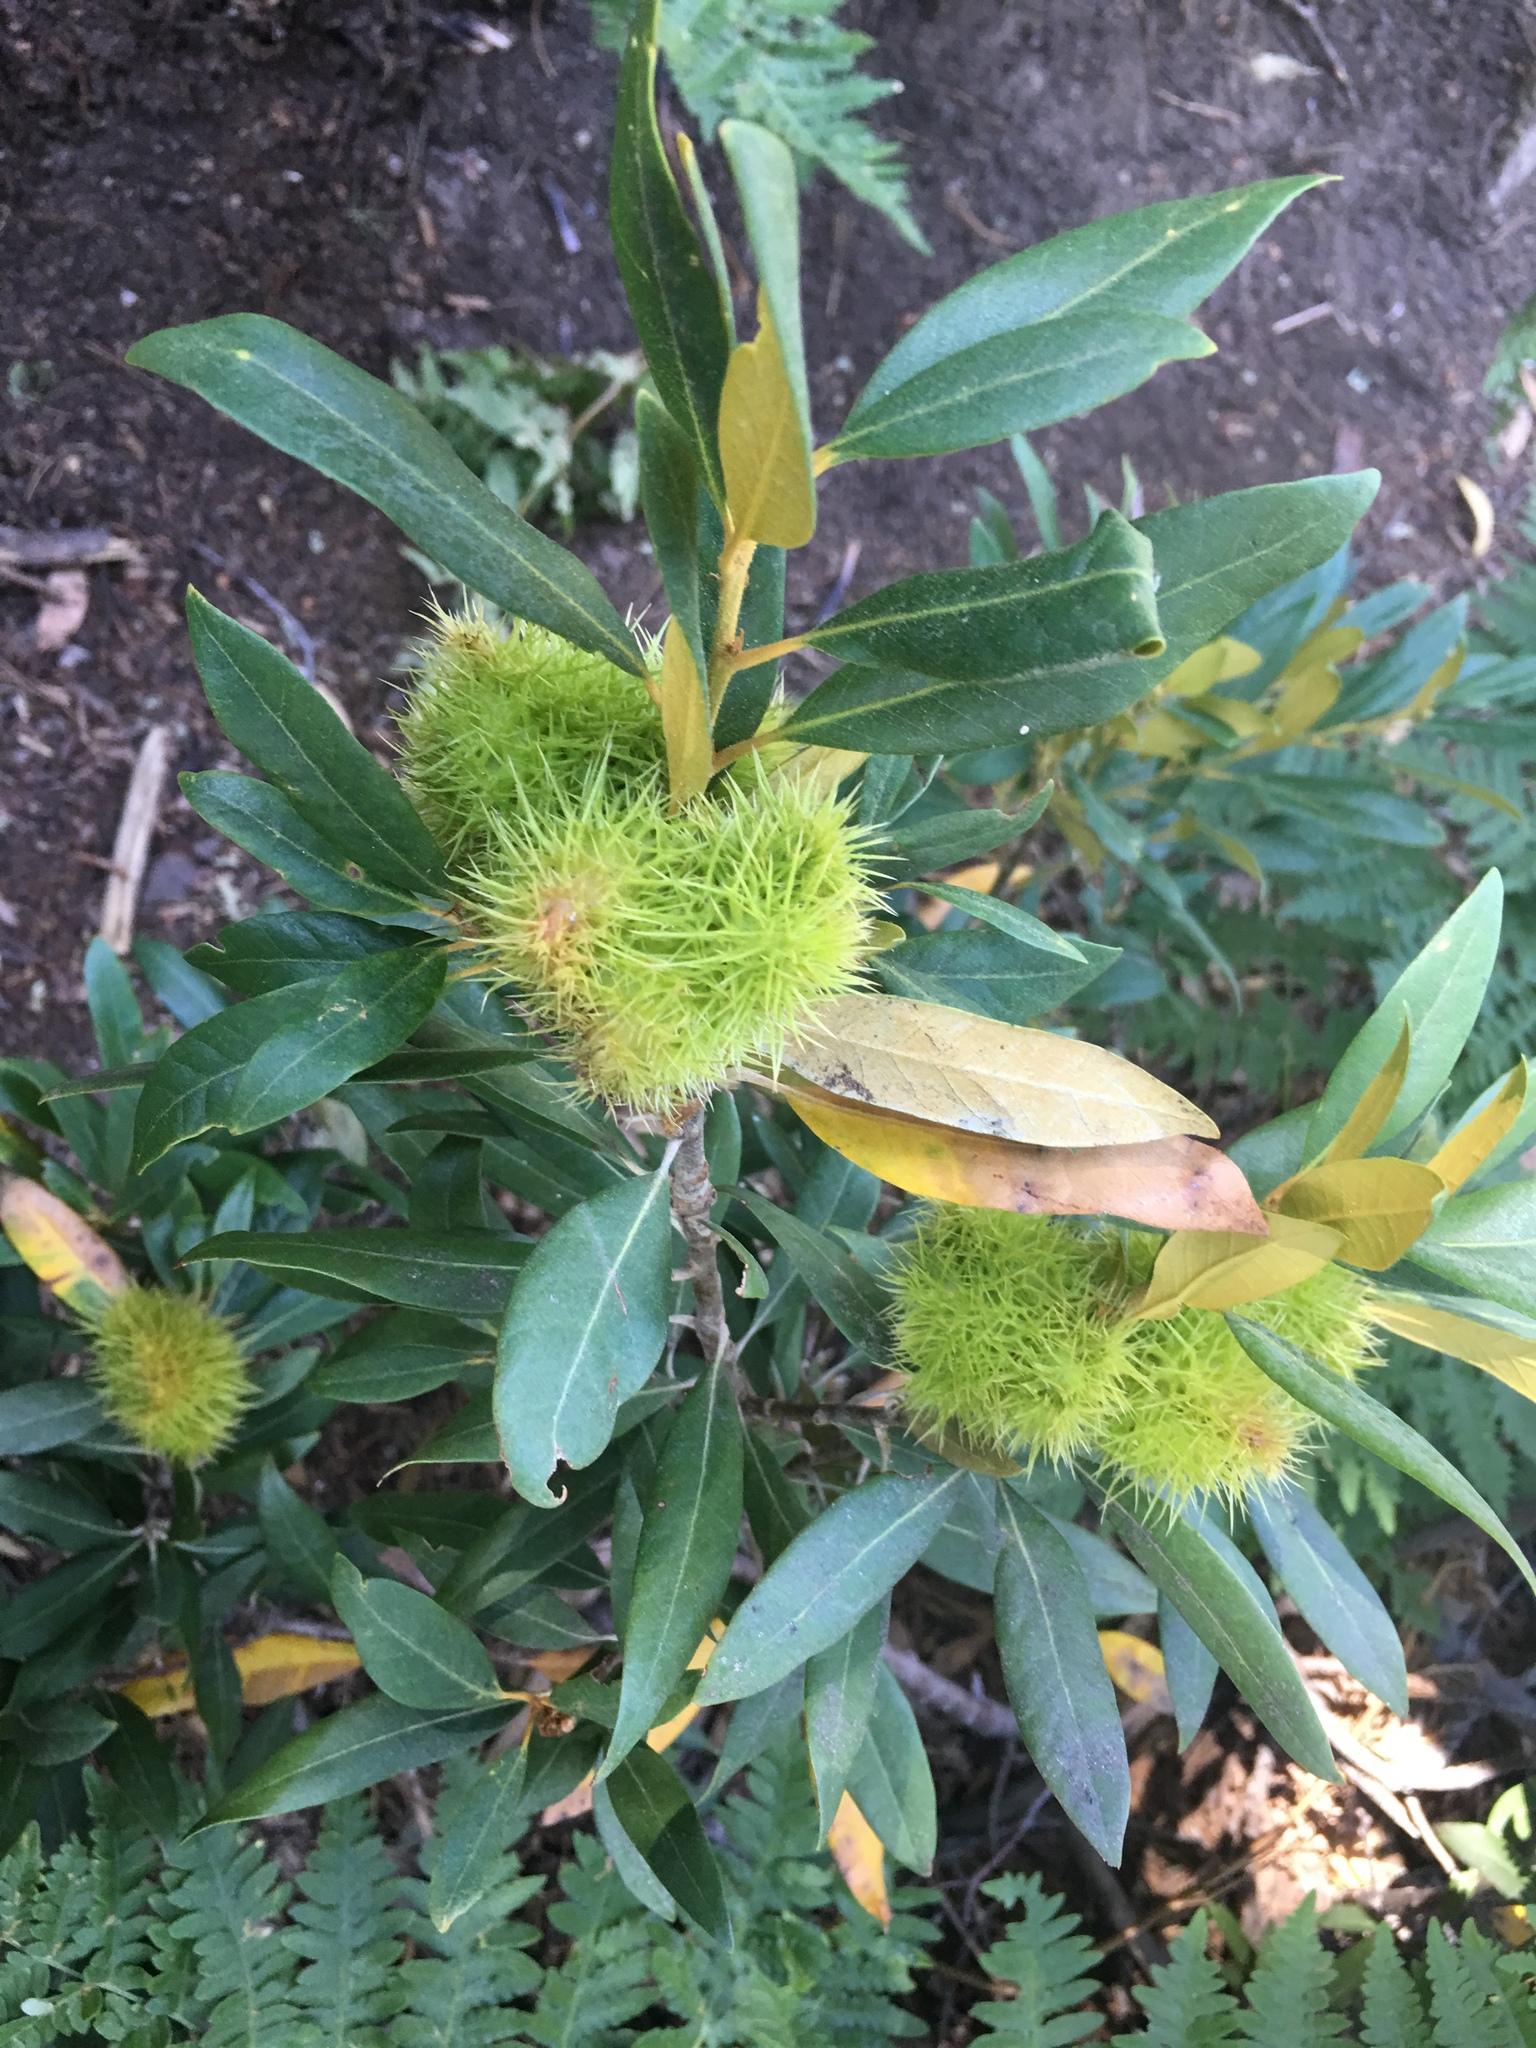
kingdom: Plantae
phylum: Tracheophyta
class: Magnoliopsida
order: Fagales
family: Fagaceae
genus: Chrysolepis
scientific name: Chrysolepis sempervirens
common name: Bush chinquapin
